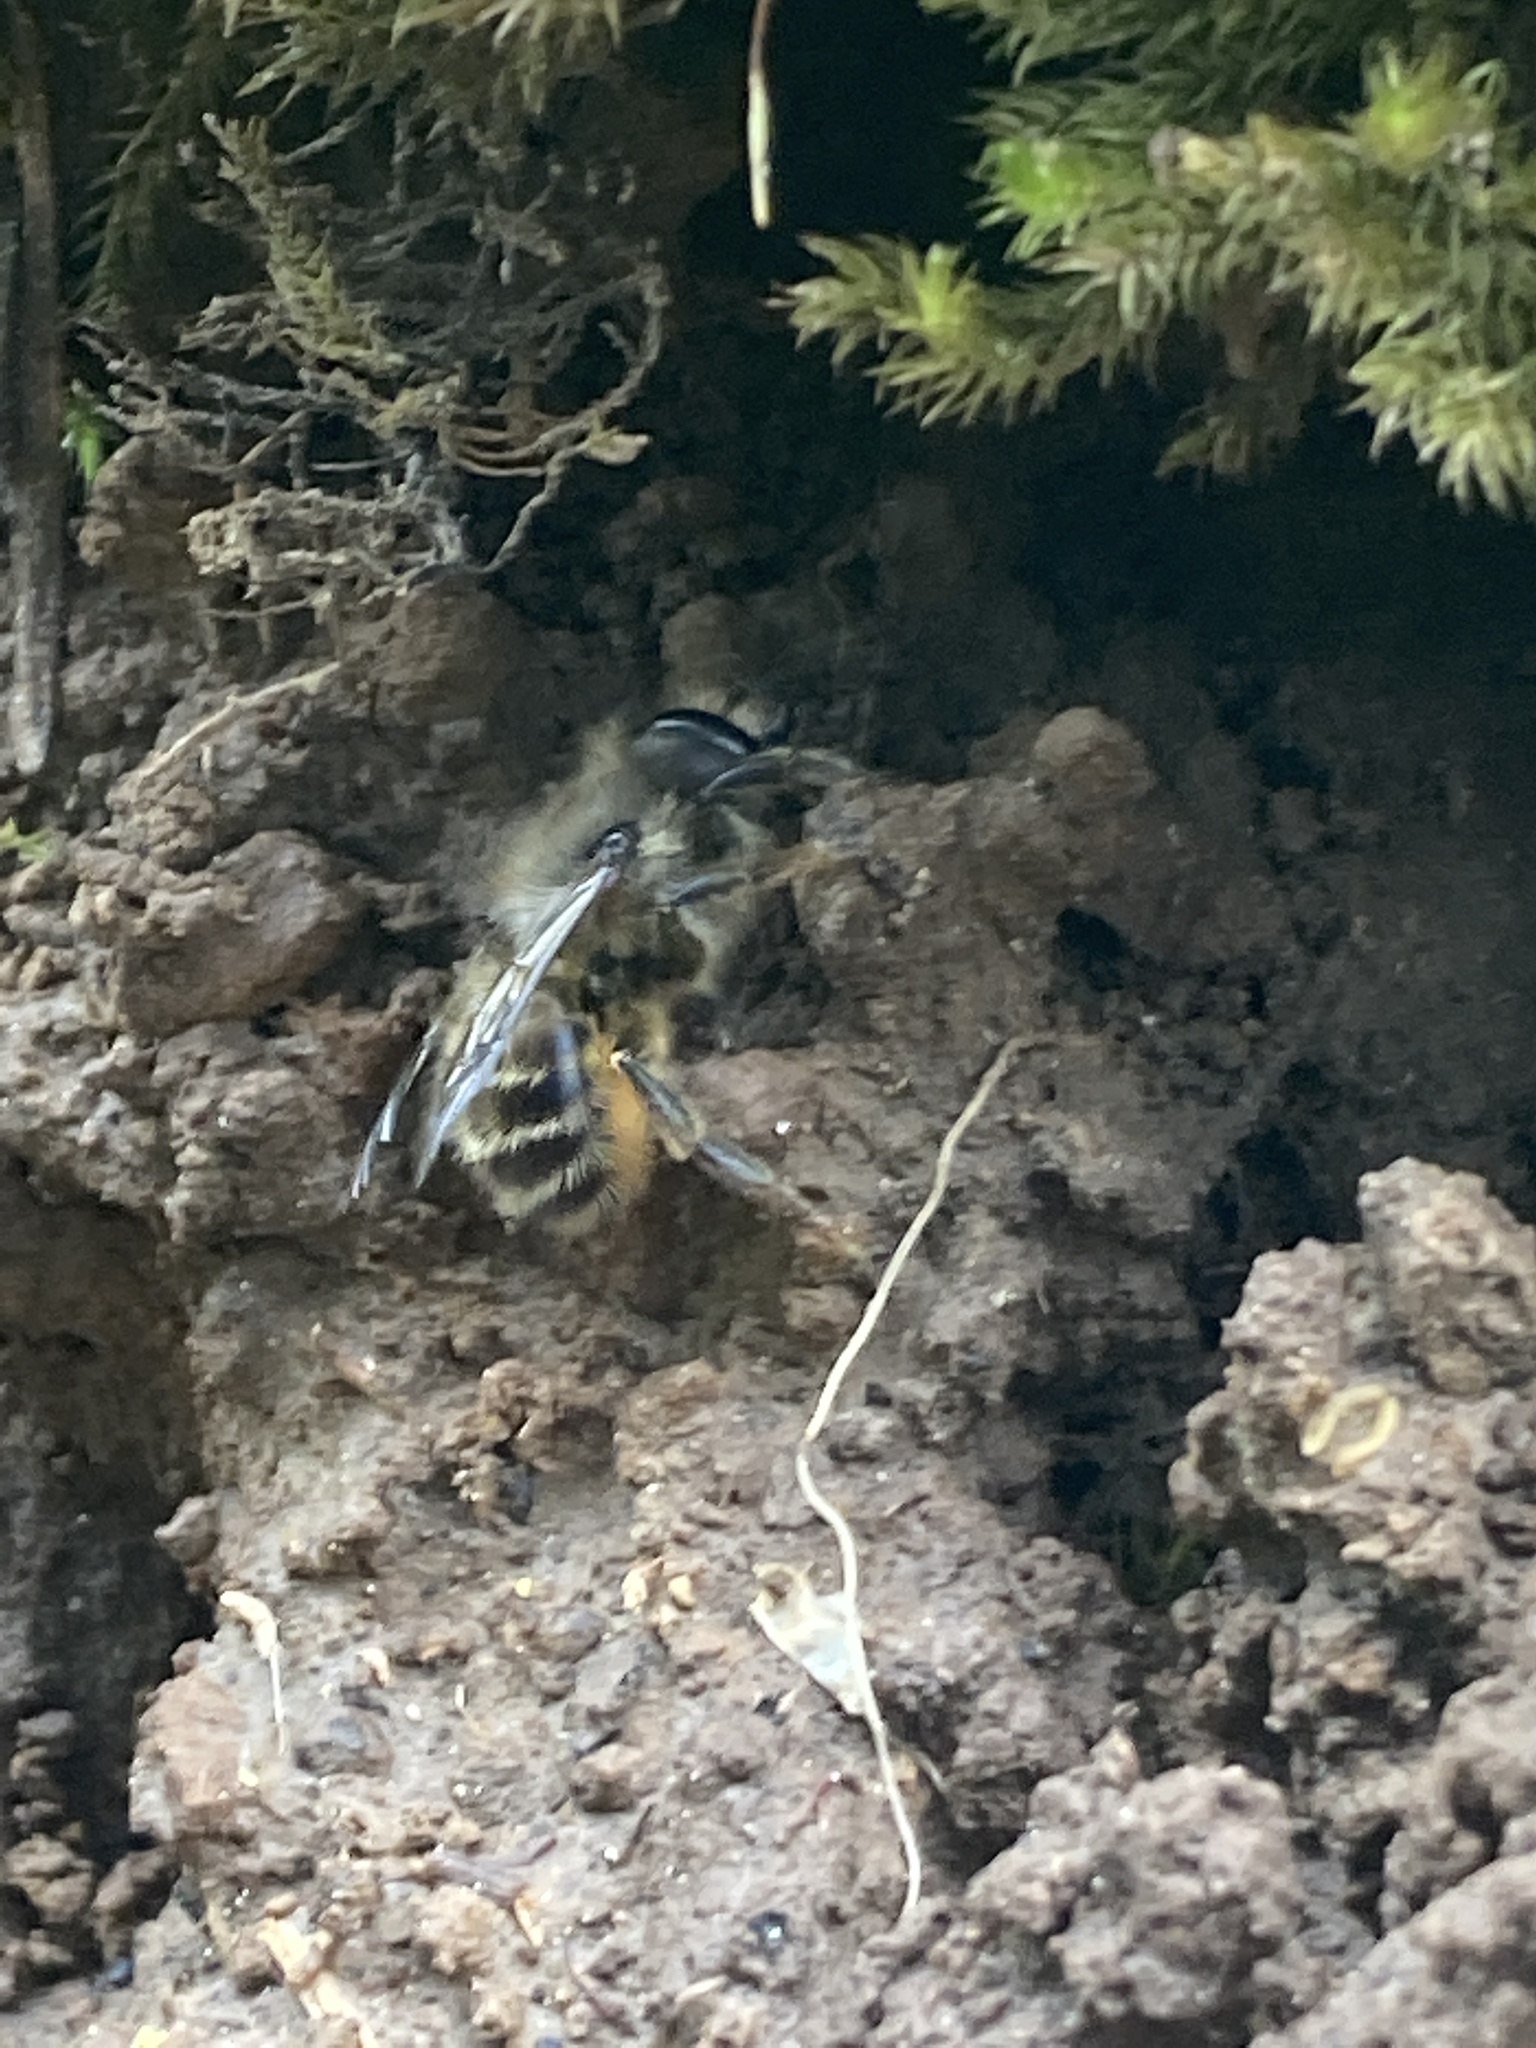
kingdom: Animalia
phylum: Arthropoda
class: Insecta
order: Hymenoptera
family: Megachilidae
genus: Osmia
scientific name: Osmia cornifrons
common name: Horn-faced bee
